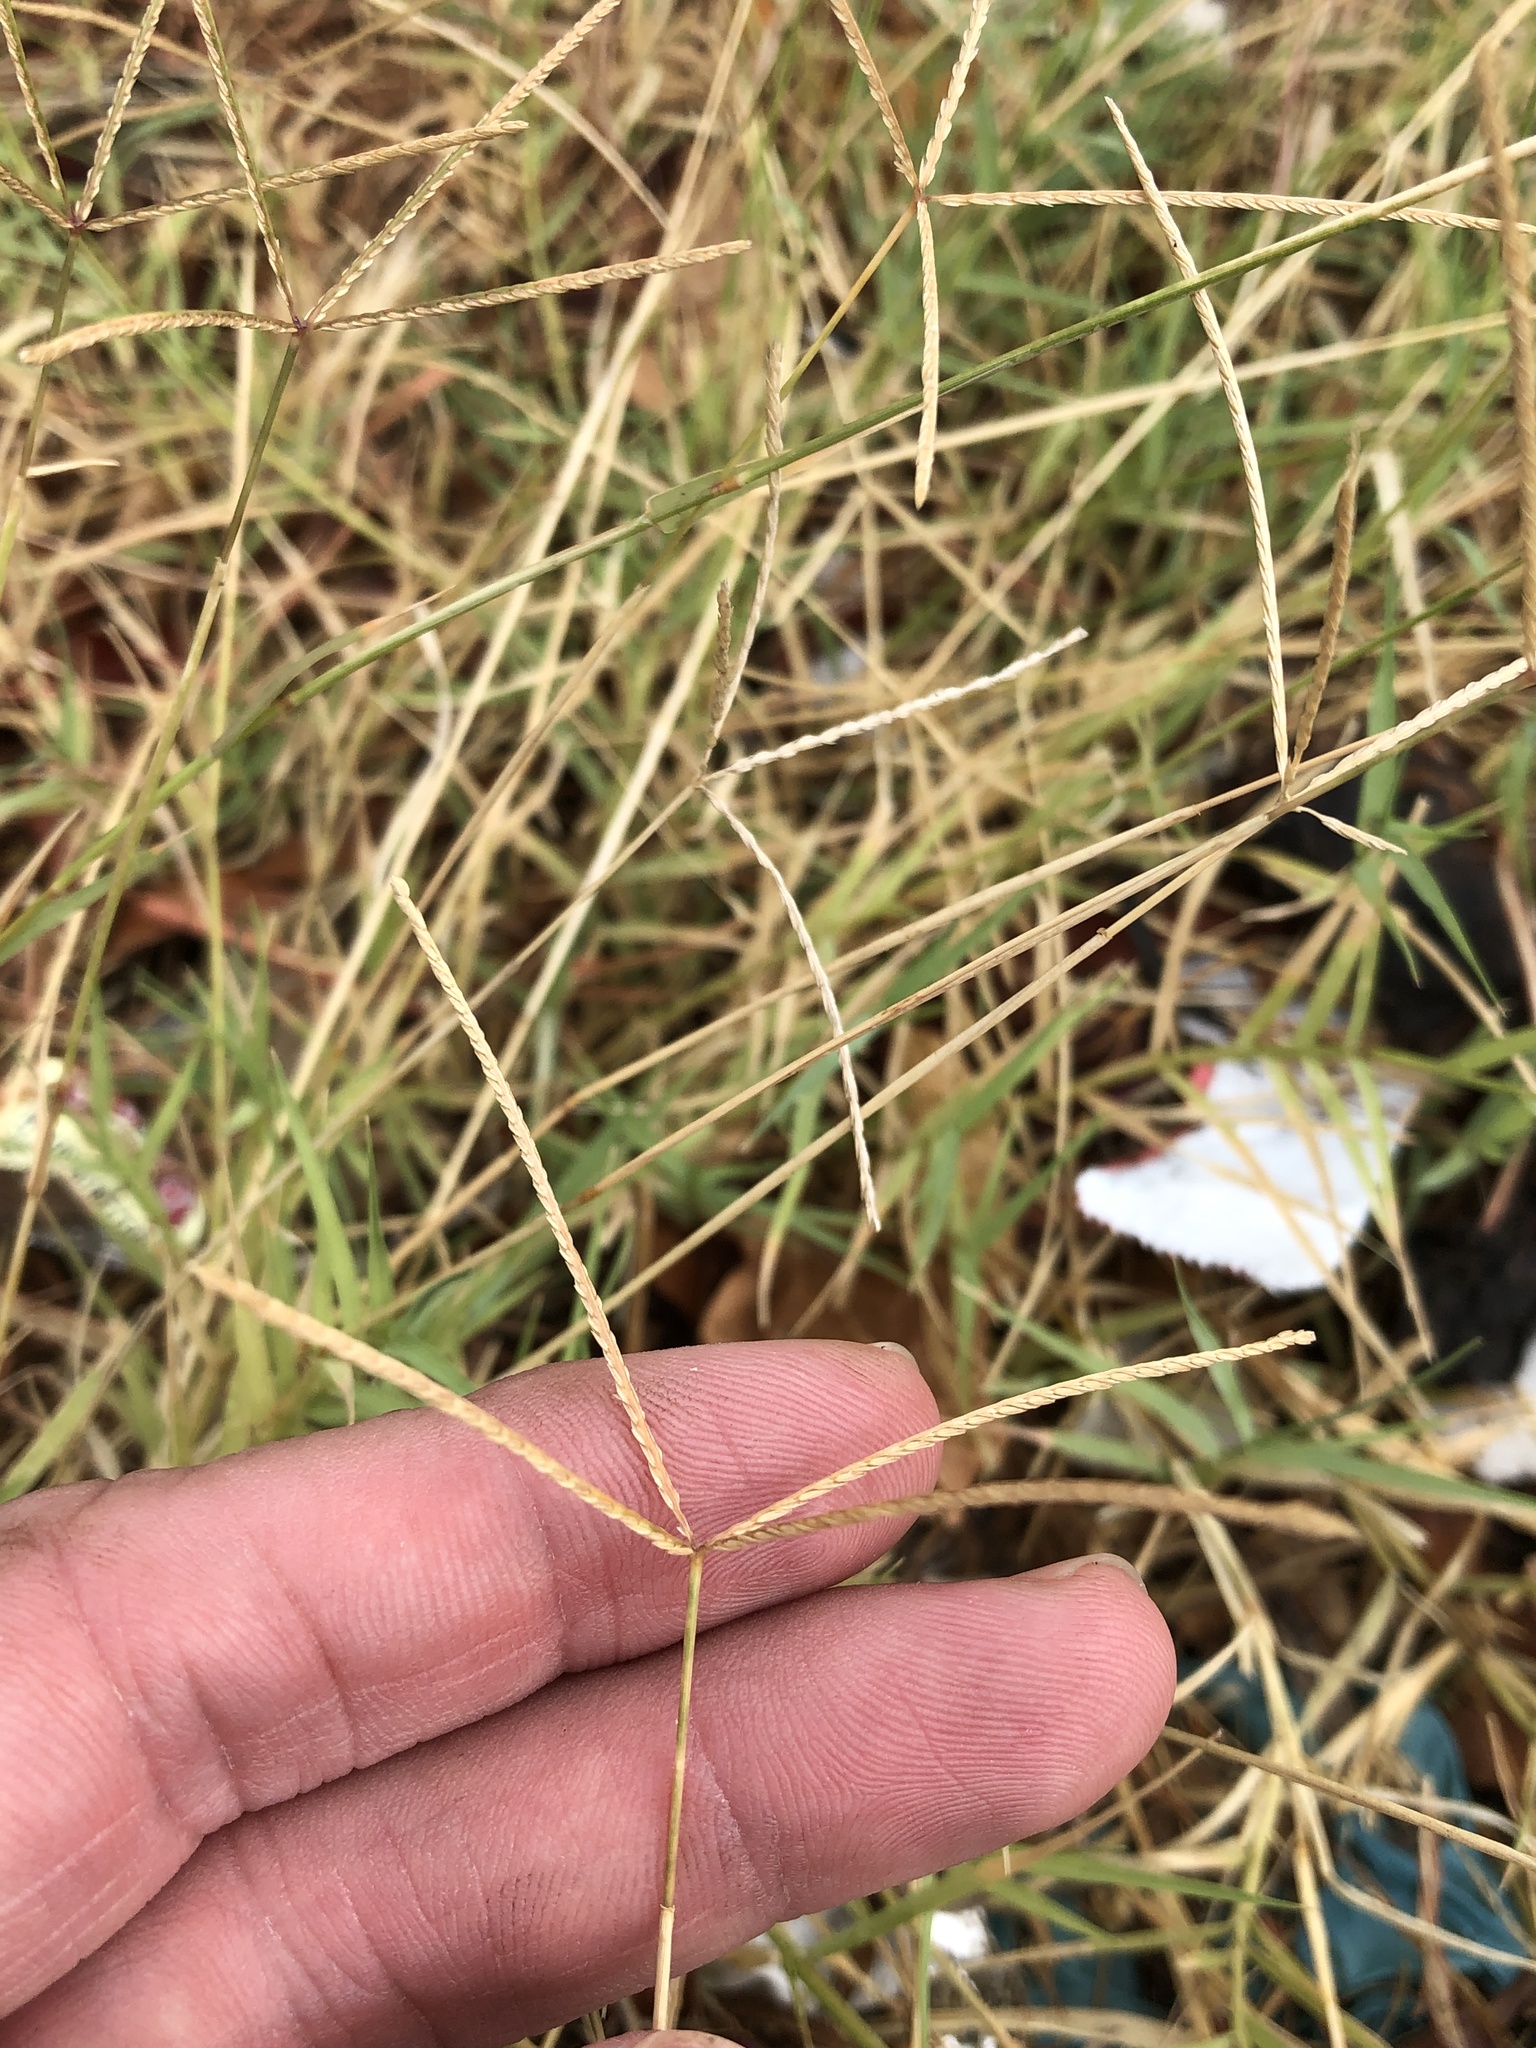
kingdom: Plantae
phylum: Tracheophyta
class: Liliopsida
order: Poales
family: Poaceae
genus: Cynodon
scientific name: Cynodon dactylon
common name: Bermuda grass
